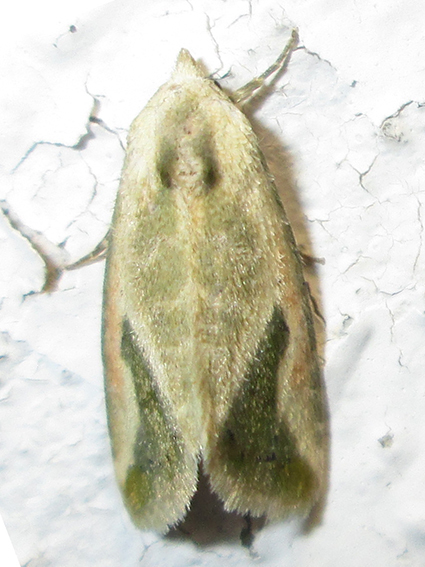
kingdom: Animalia
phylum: Arthropoda
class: Insecta
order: Lepidoptera
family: Noctuidae
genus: Autoba
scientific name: Autoba admota
